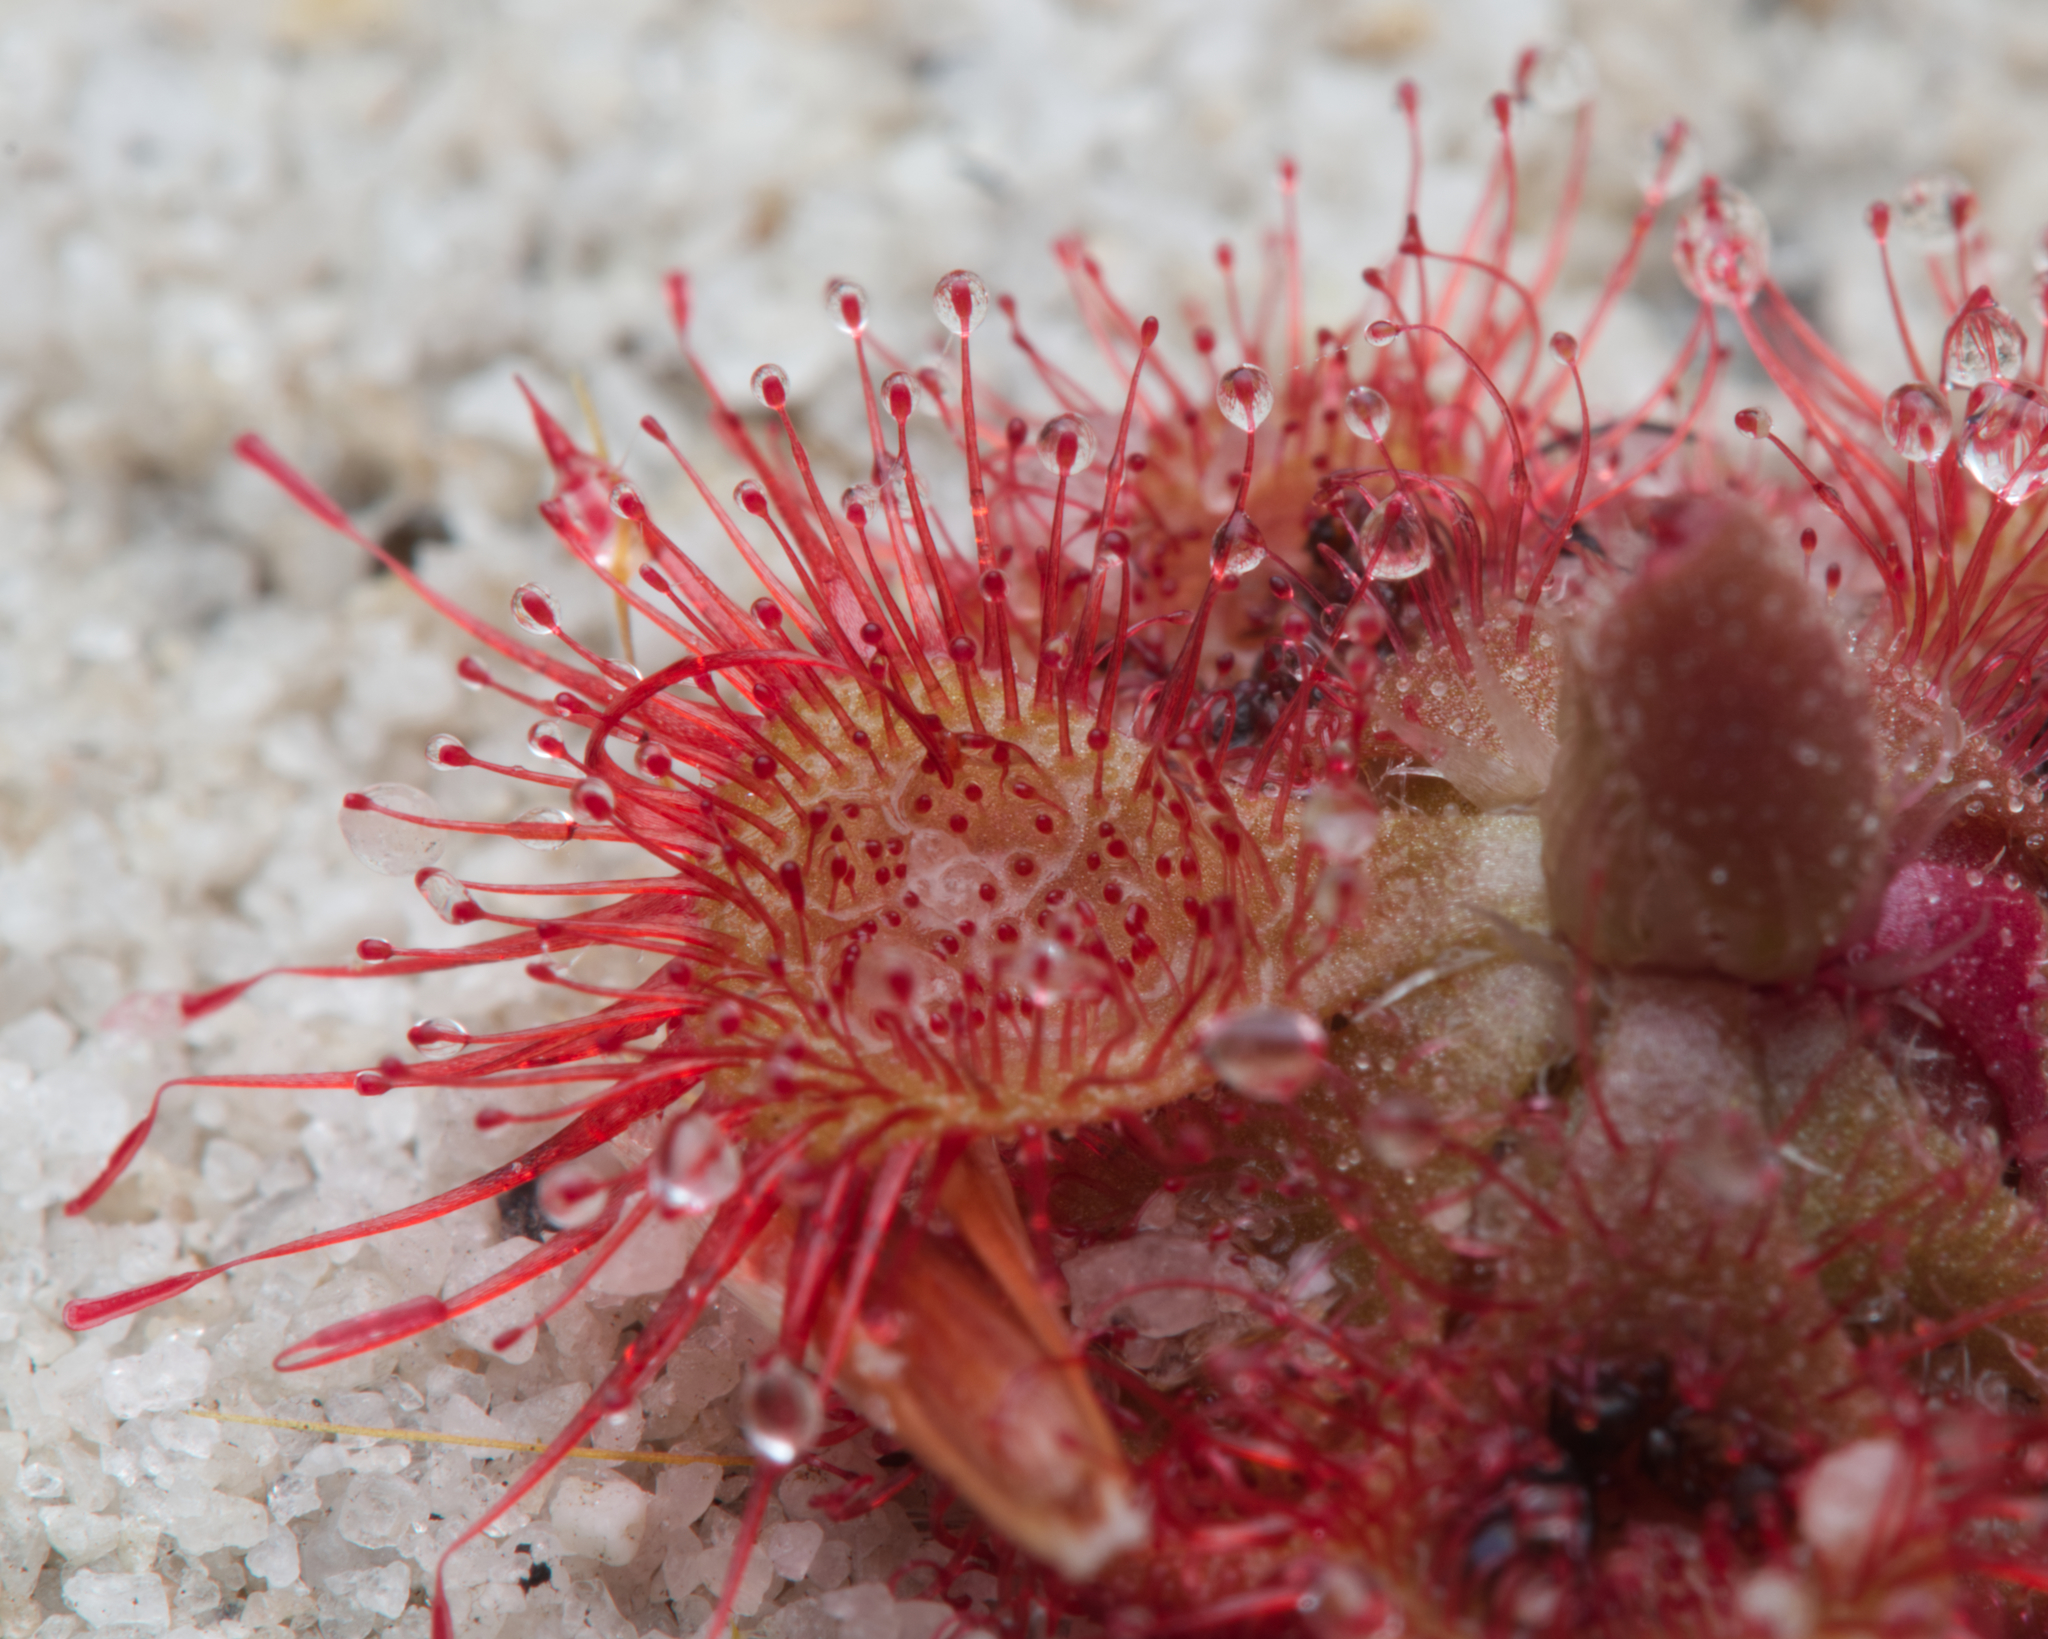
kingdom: Plantae
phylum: Tracheophyta
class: Magnoliopsida
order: Caryophyllales
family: Droseraceae
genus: Drosera
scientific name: Drosera spatulata
